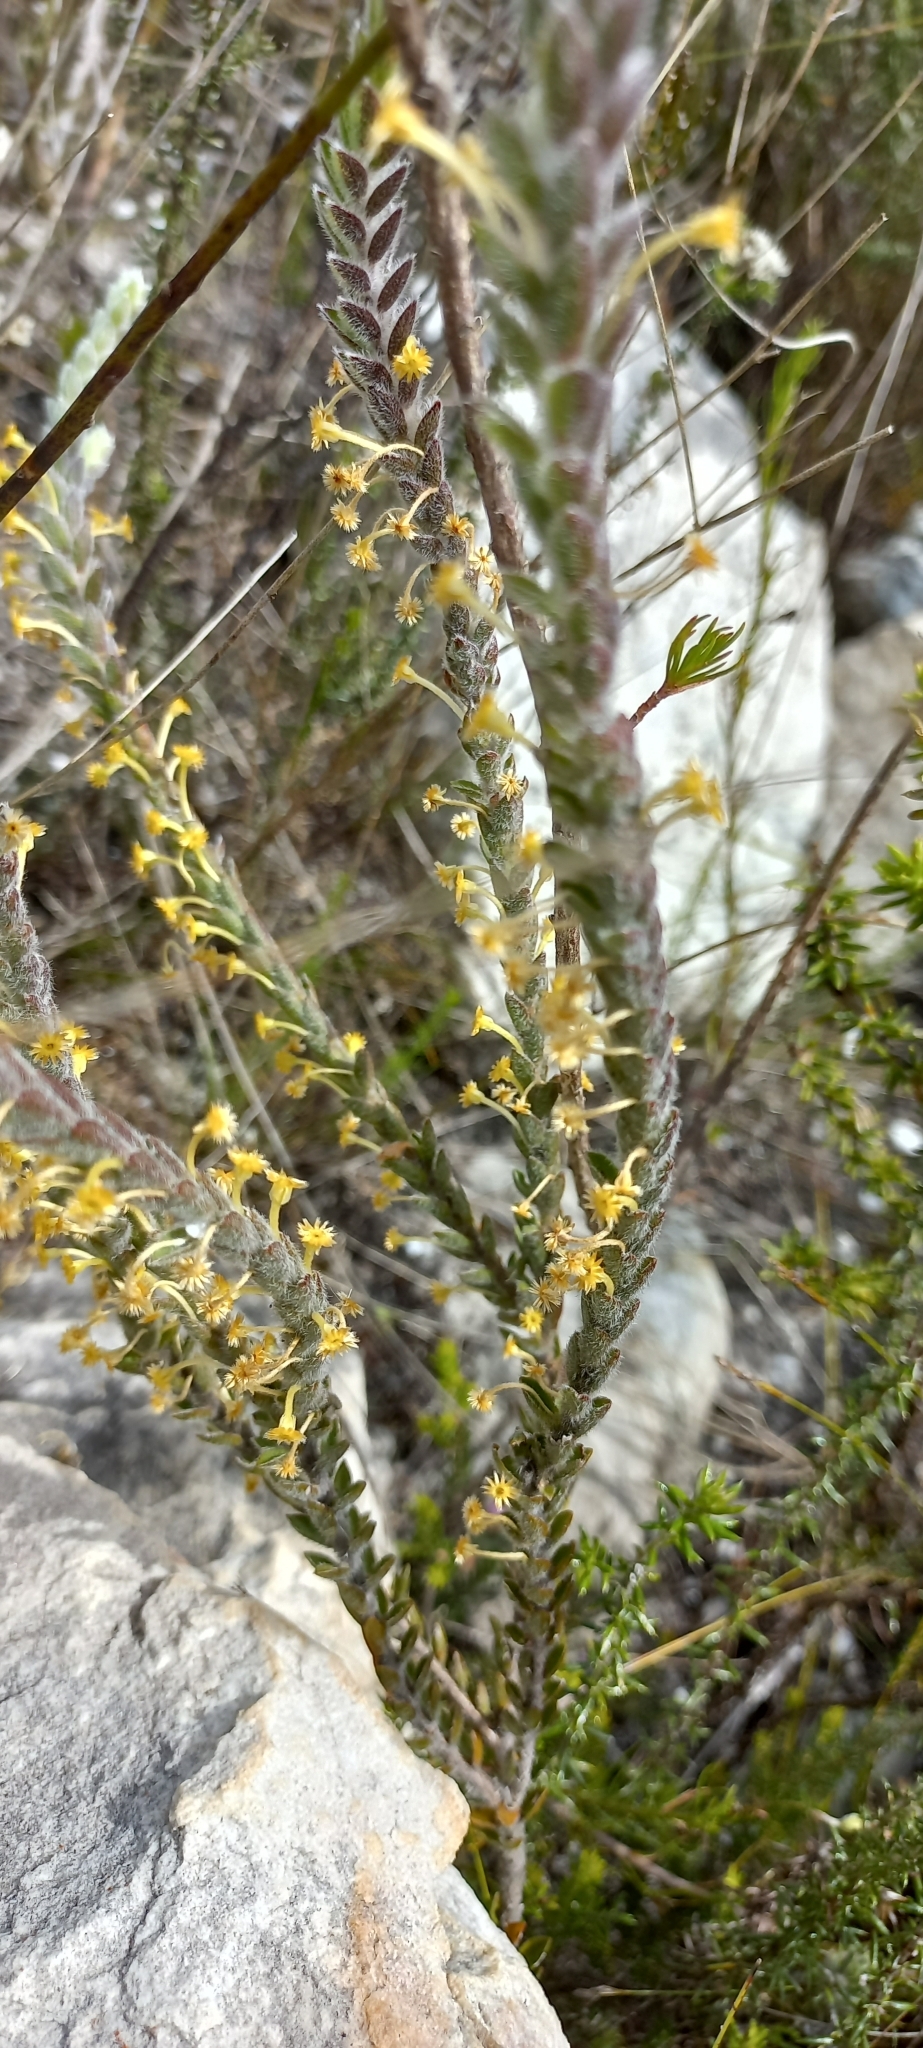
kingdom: Plantae
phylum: Tracheophyta
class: Magnoliopsida
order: Malvales
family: Thymelaeaceae
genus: Struthiola
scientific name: Struthiola tomentosa
